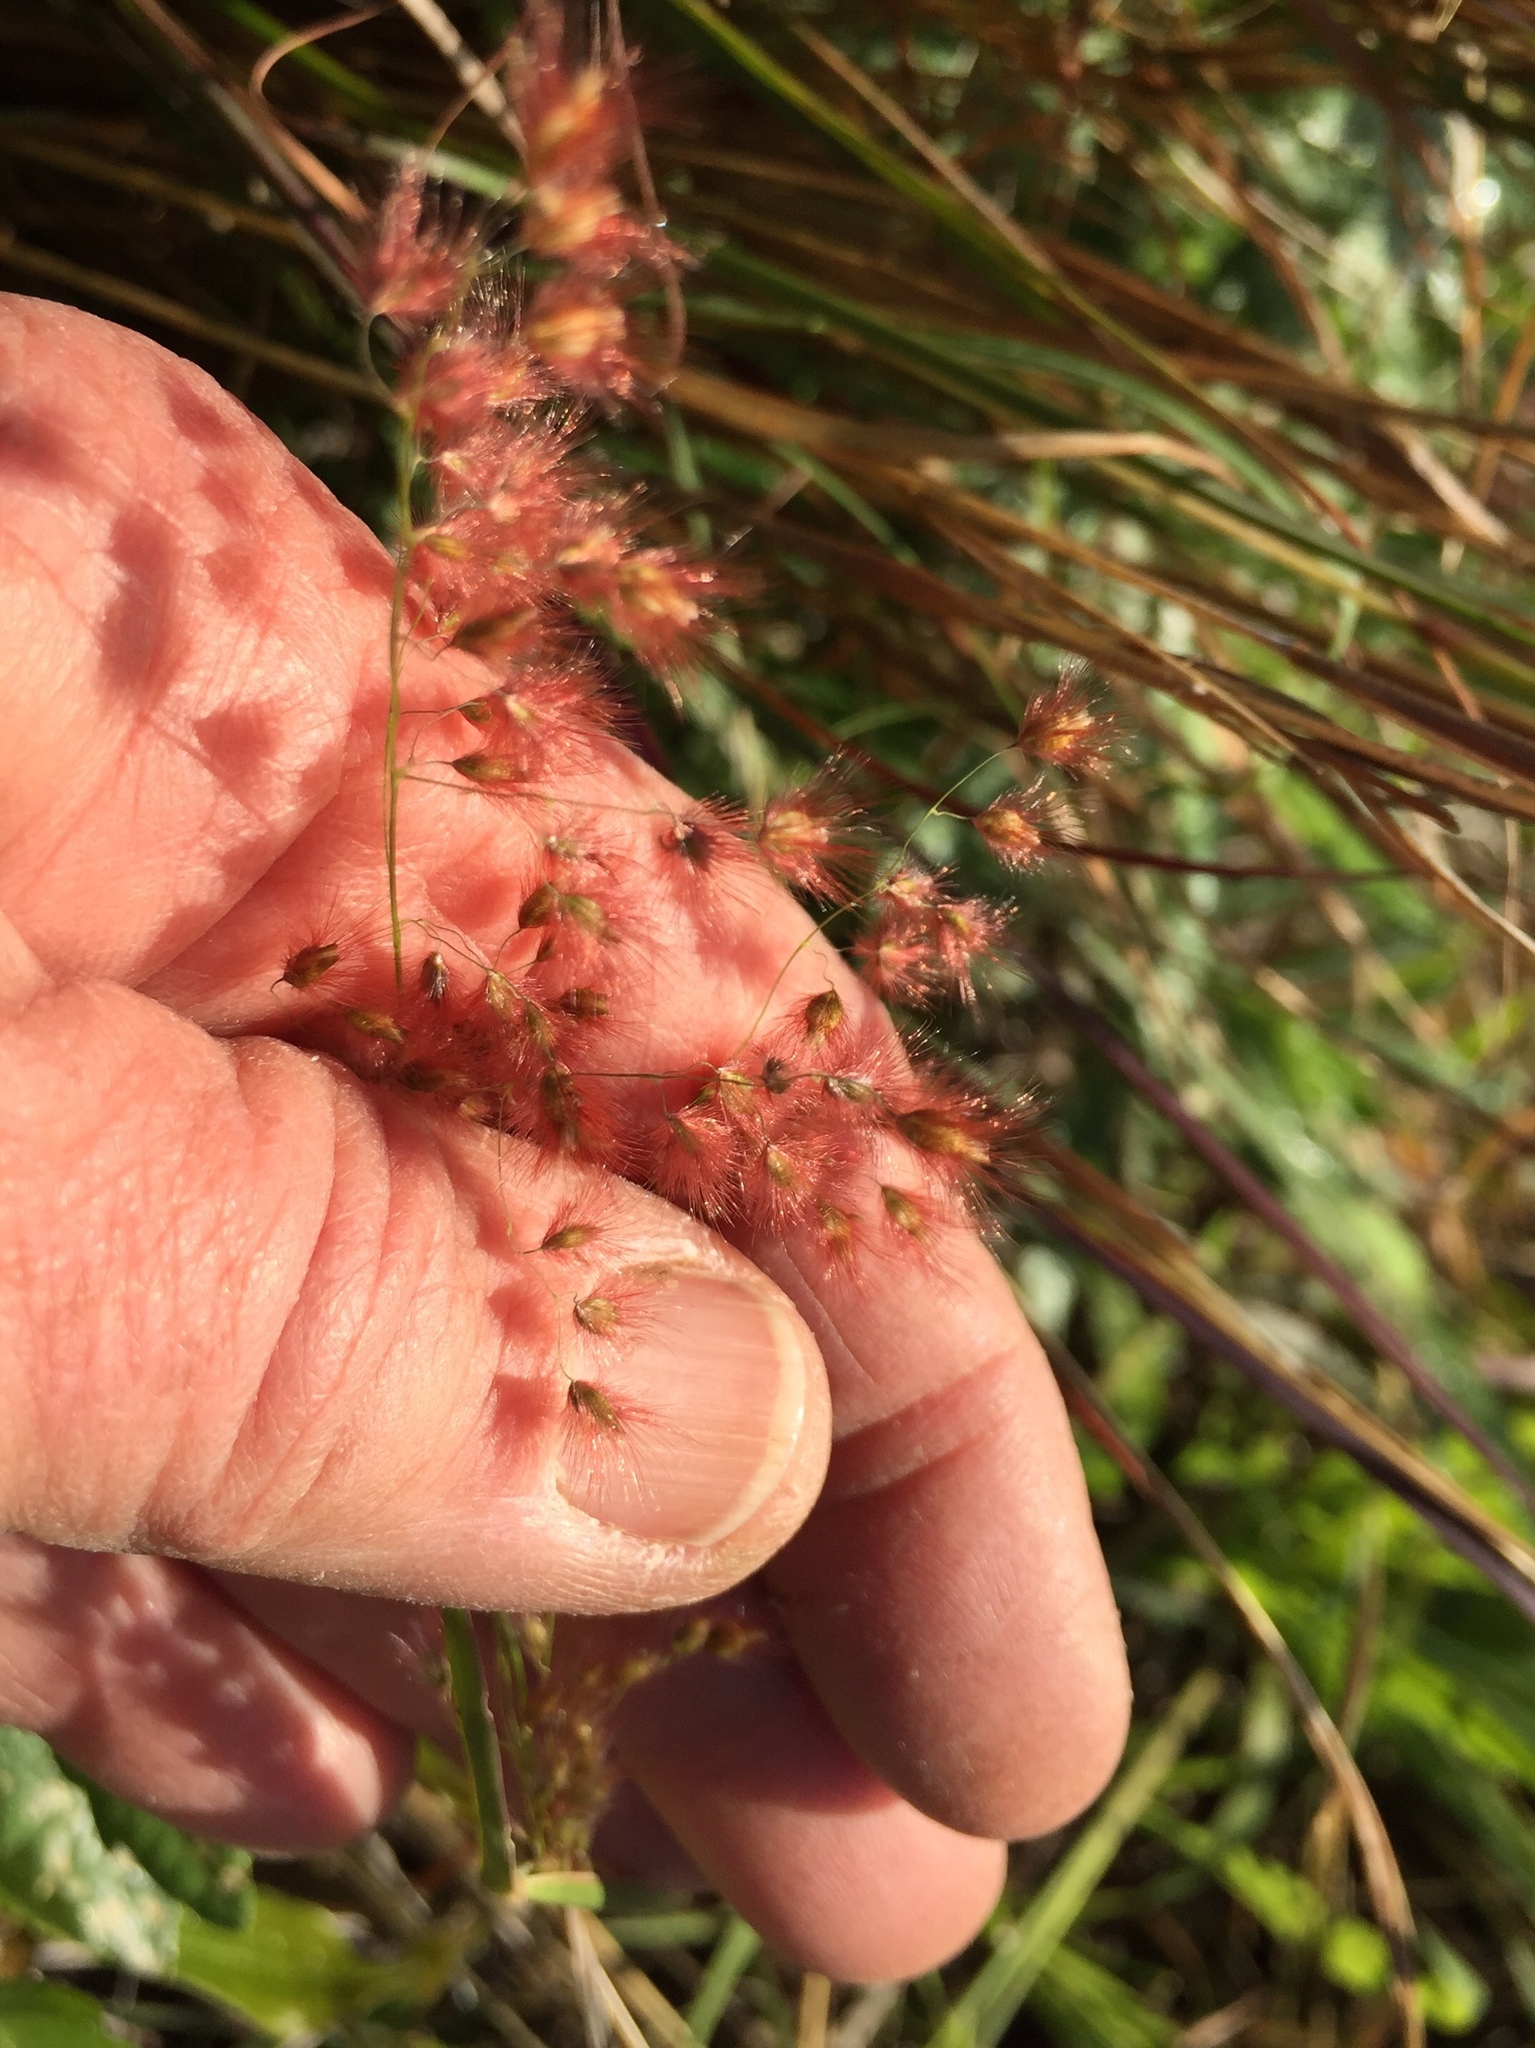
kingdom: Plantae
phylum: Tracheophyta
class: Liliopsida
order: Poales
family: Poaceae
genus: Melinis
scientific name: Melinis repens
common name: Rose natal grass
